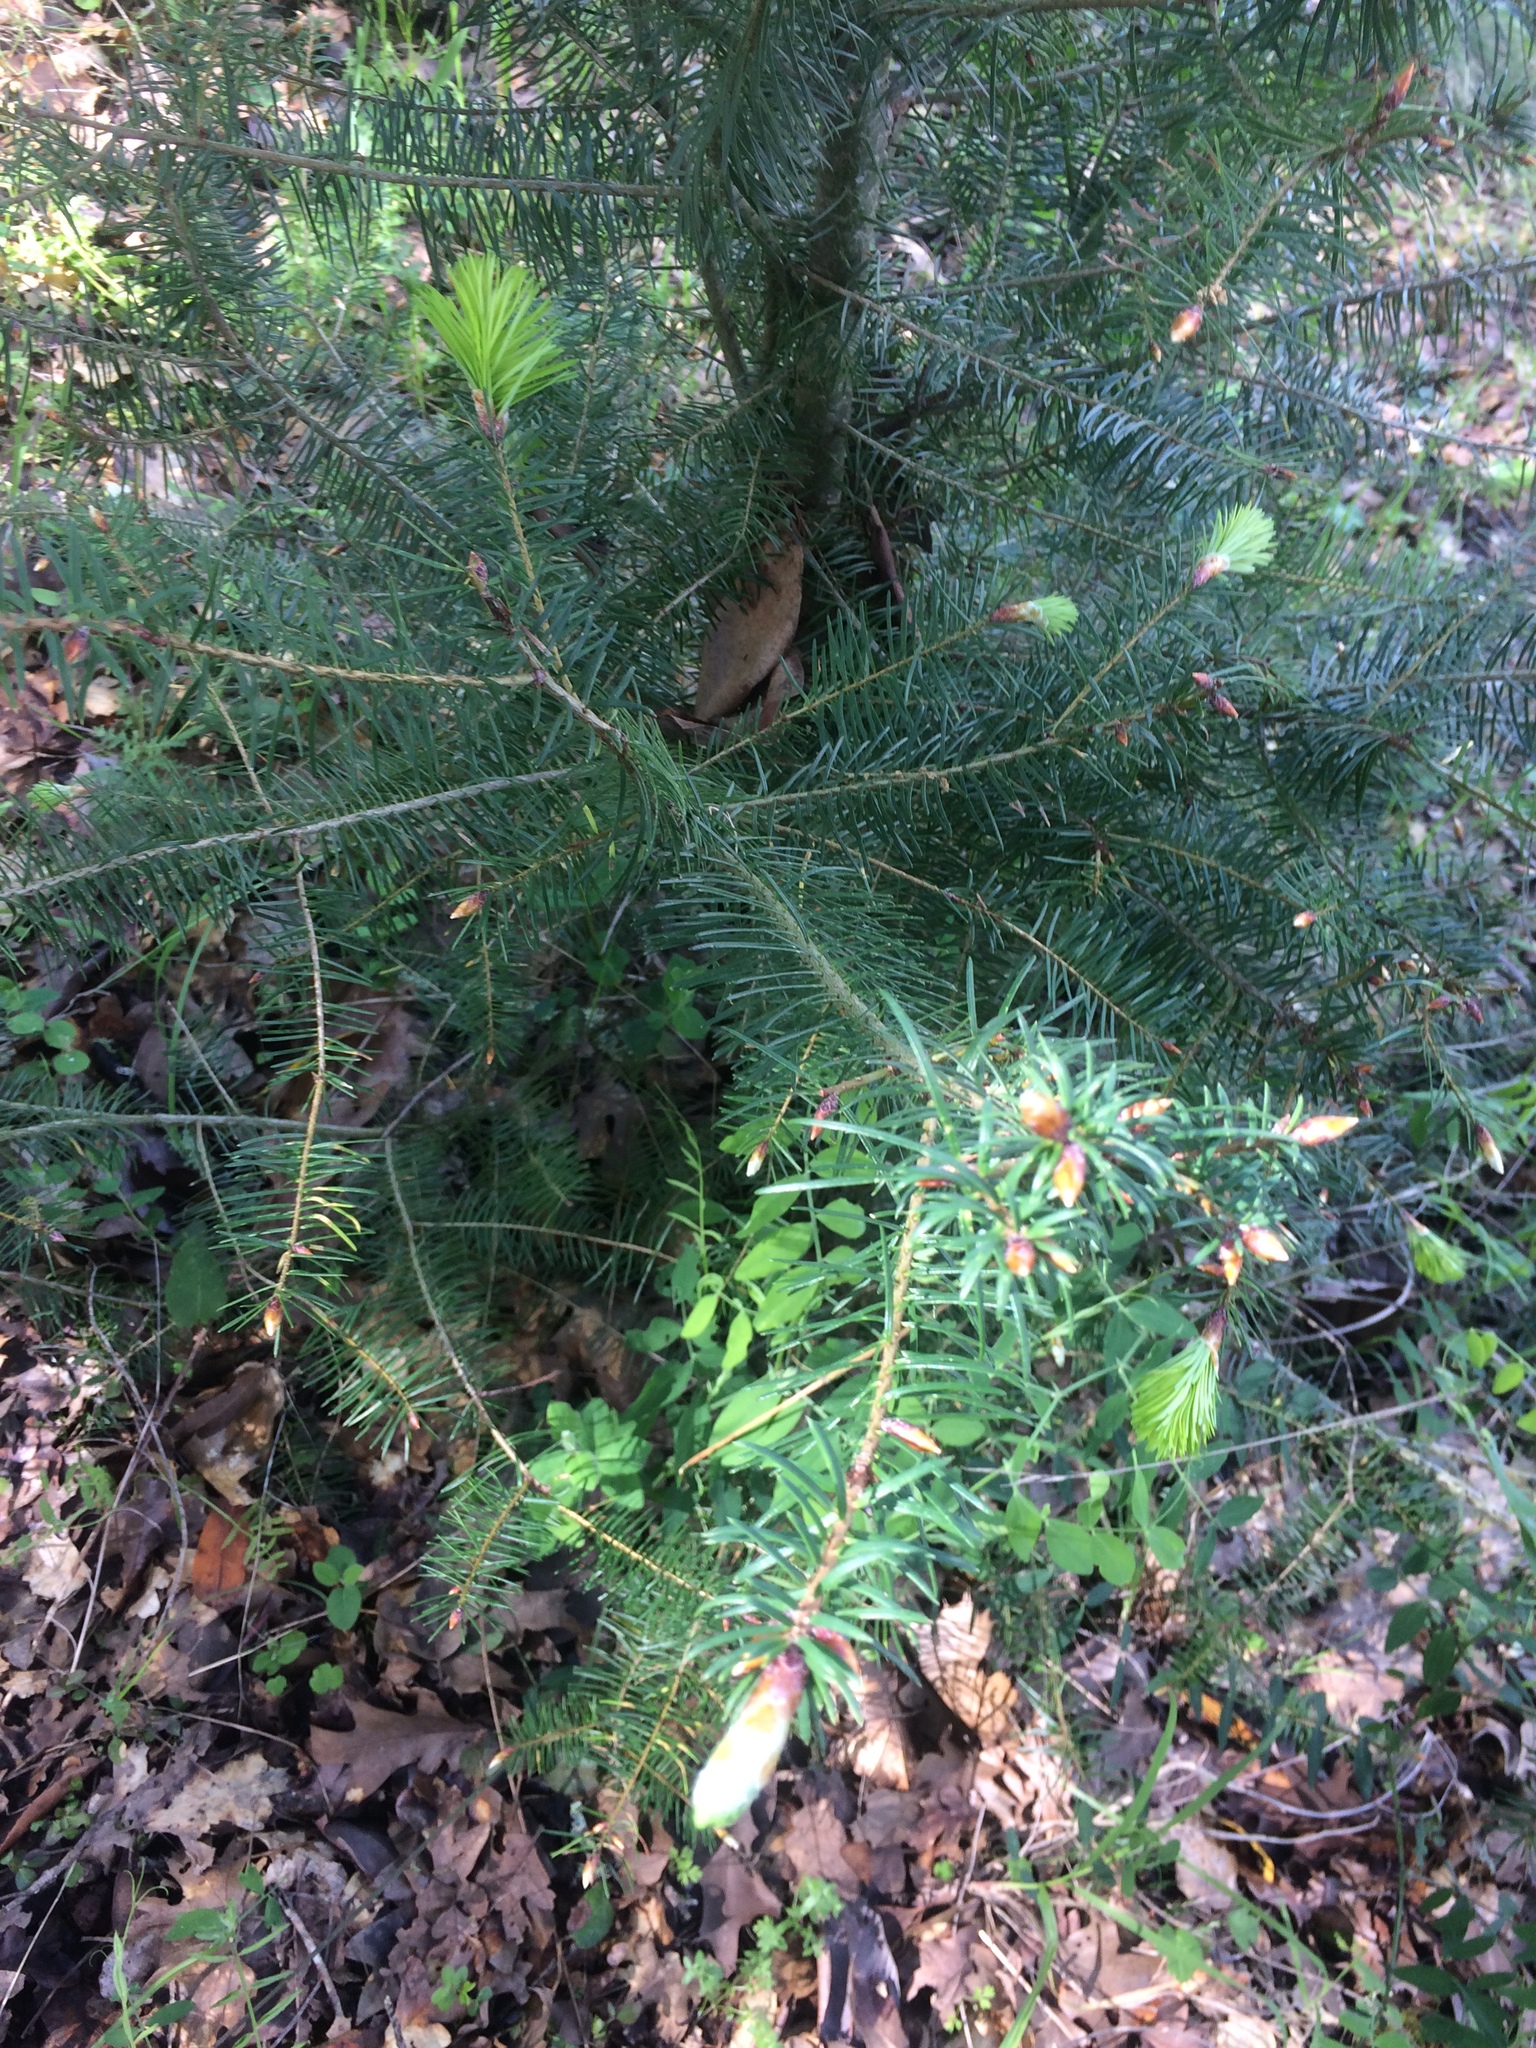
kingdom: Plantae
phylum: Tracheophyta
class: Pinopsida
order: Pinales
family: Pinaceae
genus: Pseudotsuga
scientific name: Pseudotsuga menziesii
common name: Douglas fir
